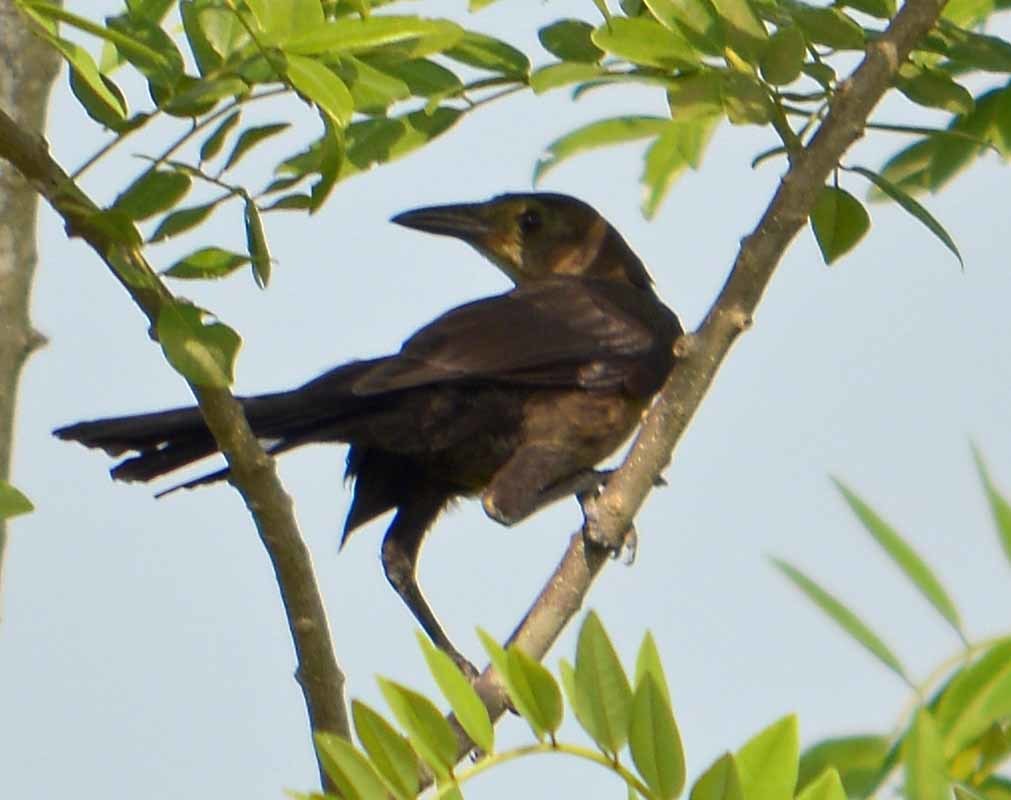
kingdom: Animalia
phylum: Chordata
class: Aves
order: Passeriformes
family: Icteridae
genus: Quiscalus
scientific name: Quiscalus mexicanus
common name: Great-tailed grackle
